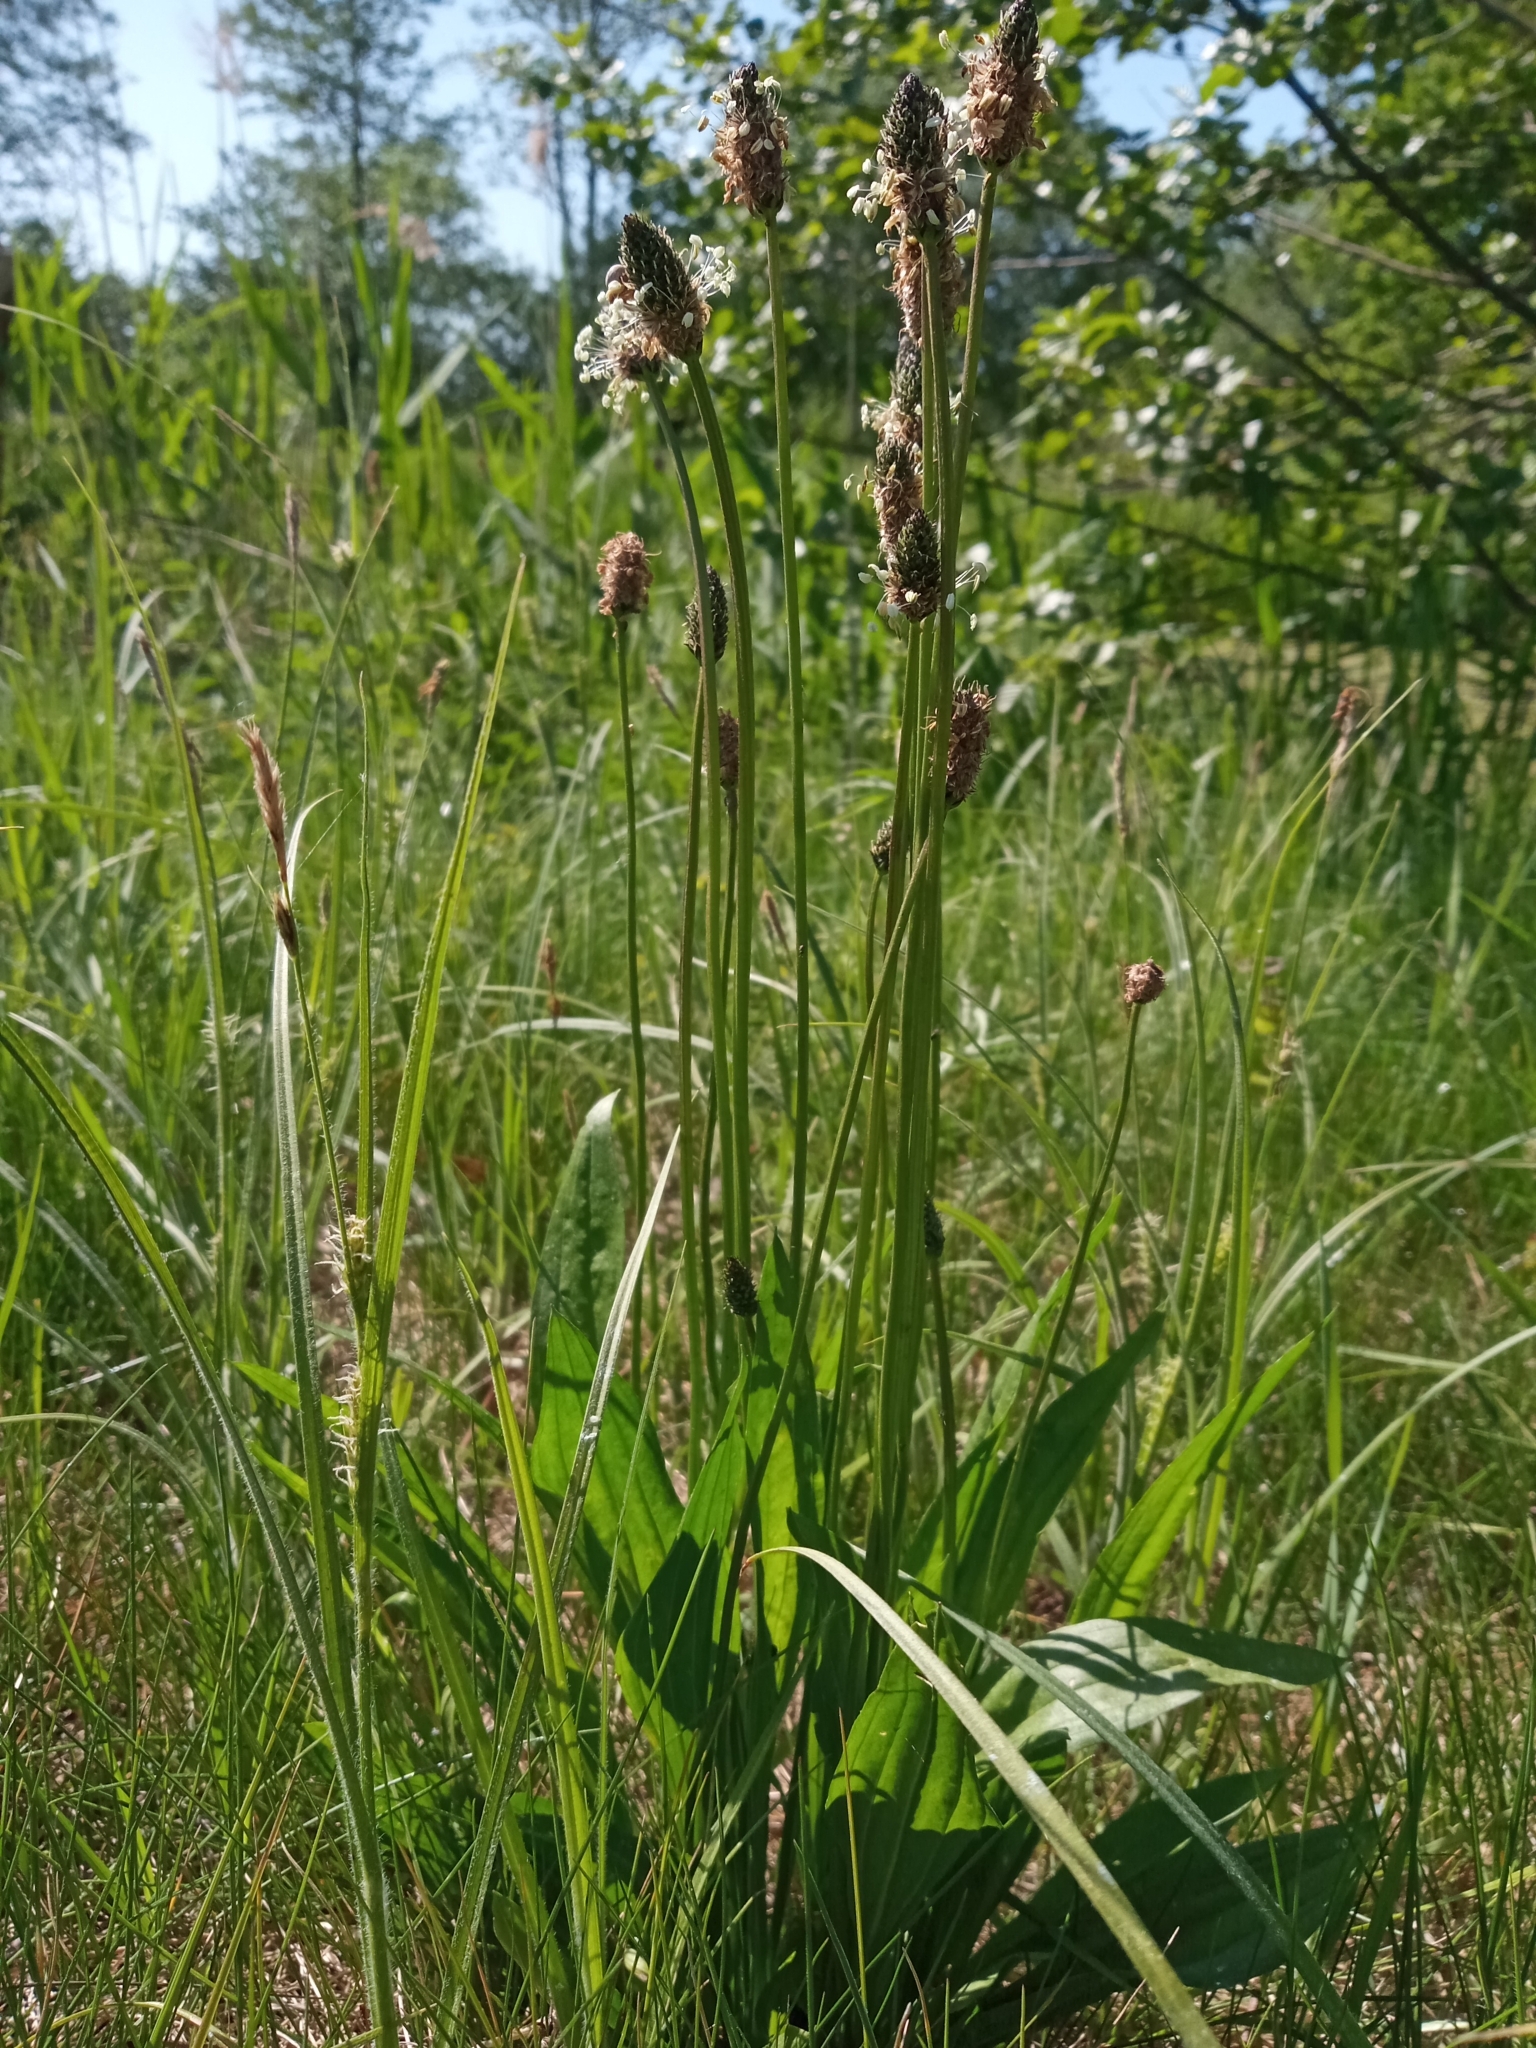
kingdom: Plantae
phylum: Tracheophyta
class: Magnoliopsida
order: Lamiales
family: Plantaginaceae
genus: Plantago
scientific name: Plantago lanceolata
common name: Ribwort plantain
